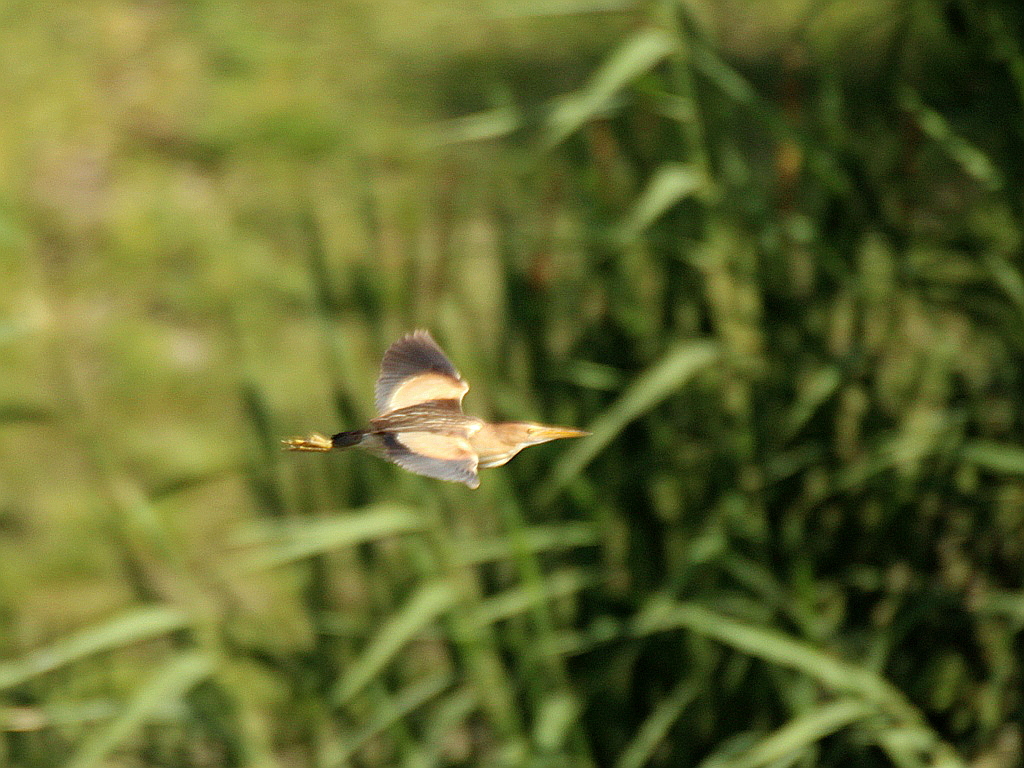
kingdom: Animalia
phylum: Chordata
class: Aves
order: Pelecaniformes
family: Ardeidae
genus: Ixobrychus
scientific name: Ixobrychus minutus
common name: Little bittern
